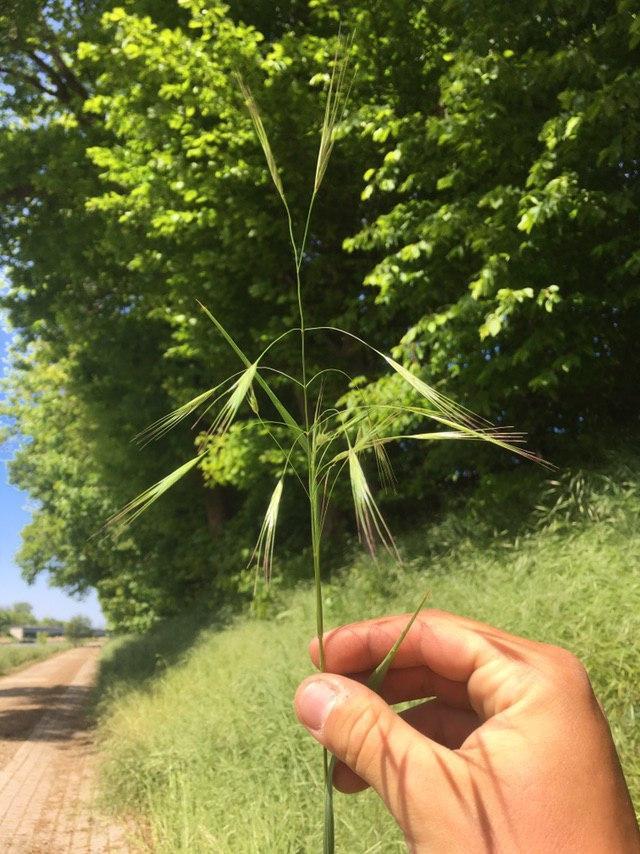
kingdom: Plantae
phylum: Tracheophyta
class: Liliopsida
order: Poales
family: Poaceae
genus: Bromus
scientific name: Bromus sterilis
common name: Poverty brome
